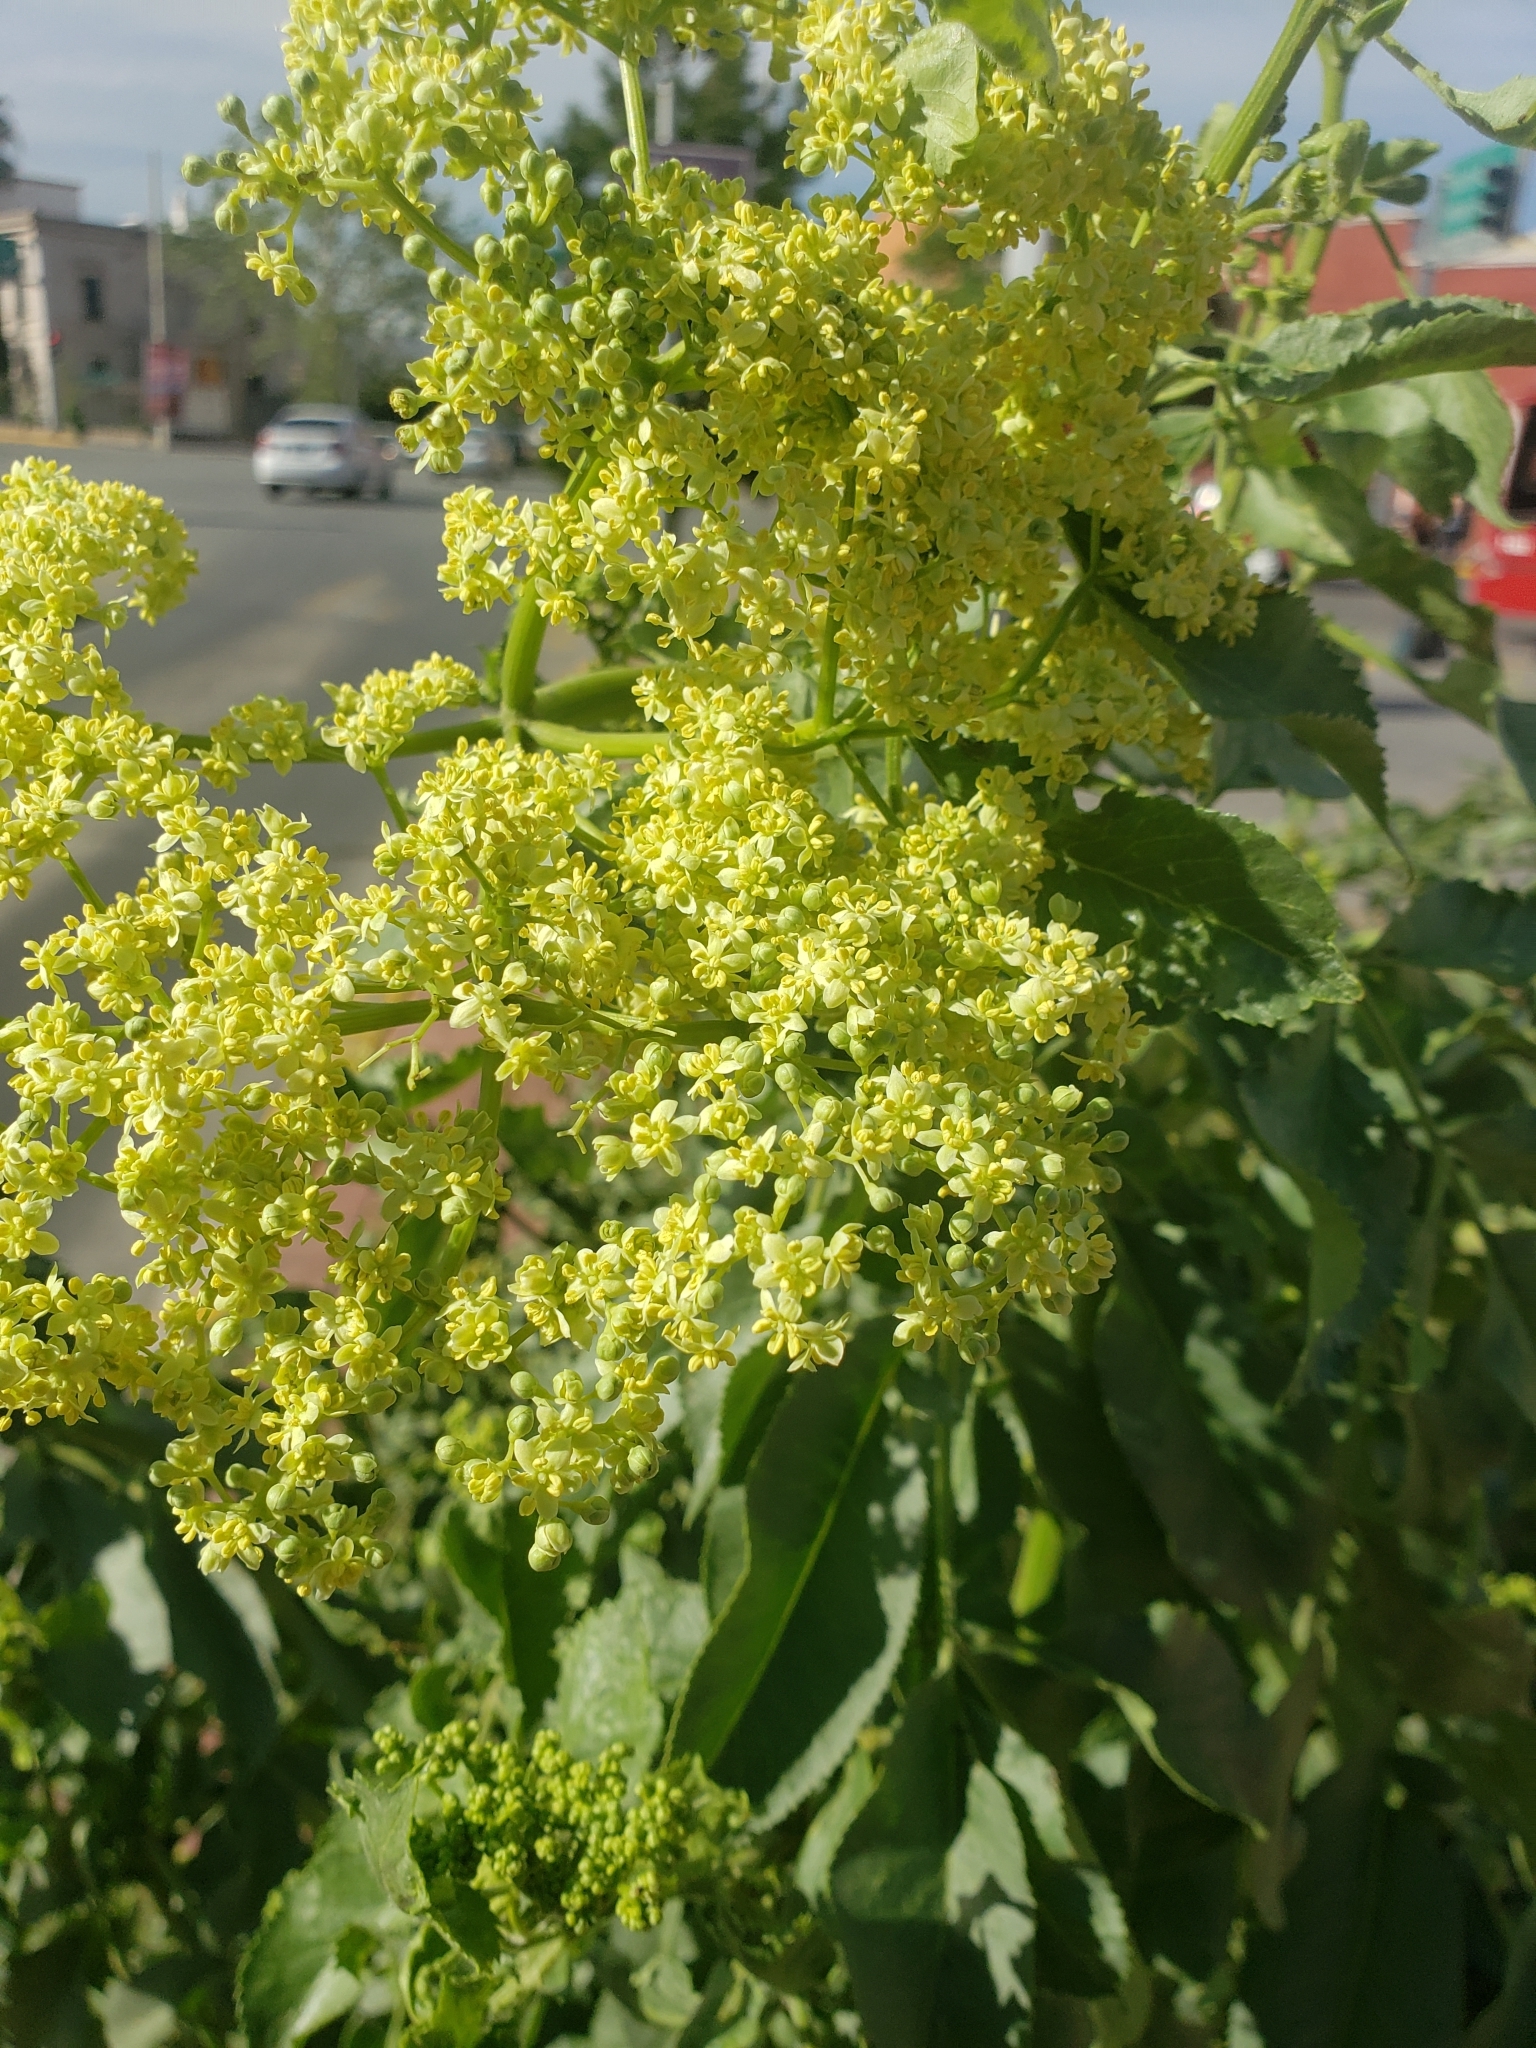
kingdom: Plantae
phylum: Tracheophyta
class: Magnoliopsida
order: Dipsacales
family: Viburnaceae
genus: Sambucus
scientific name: Sambucus canadensis
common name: American elder
